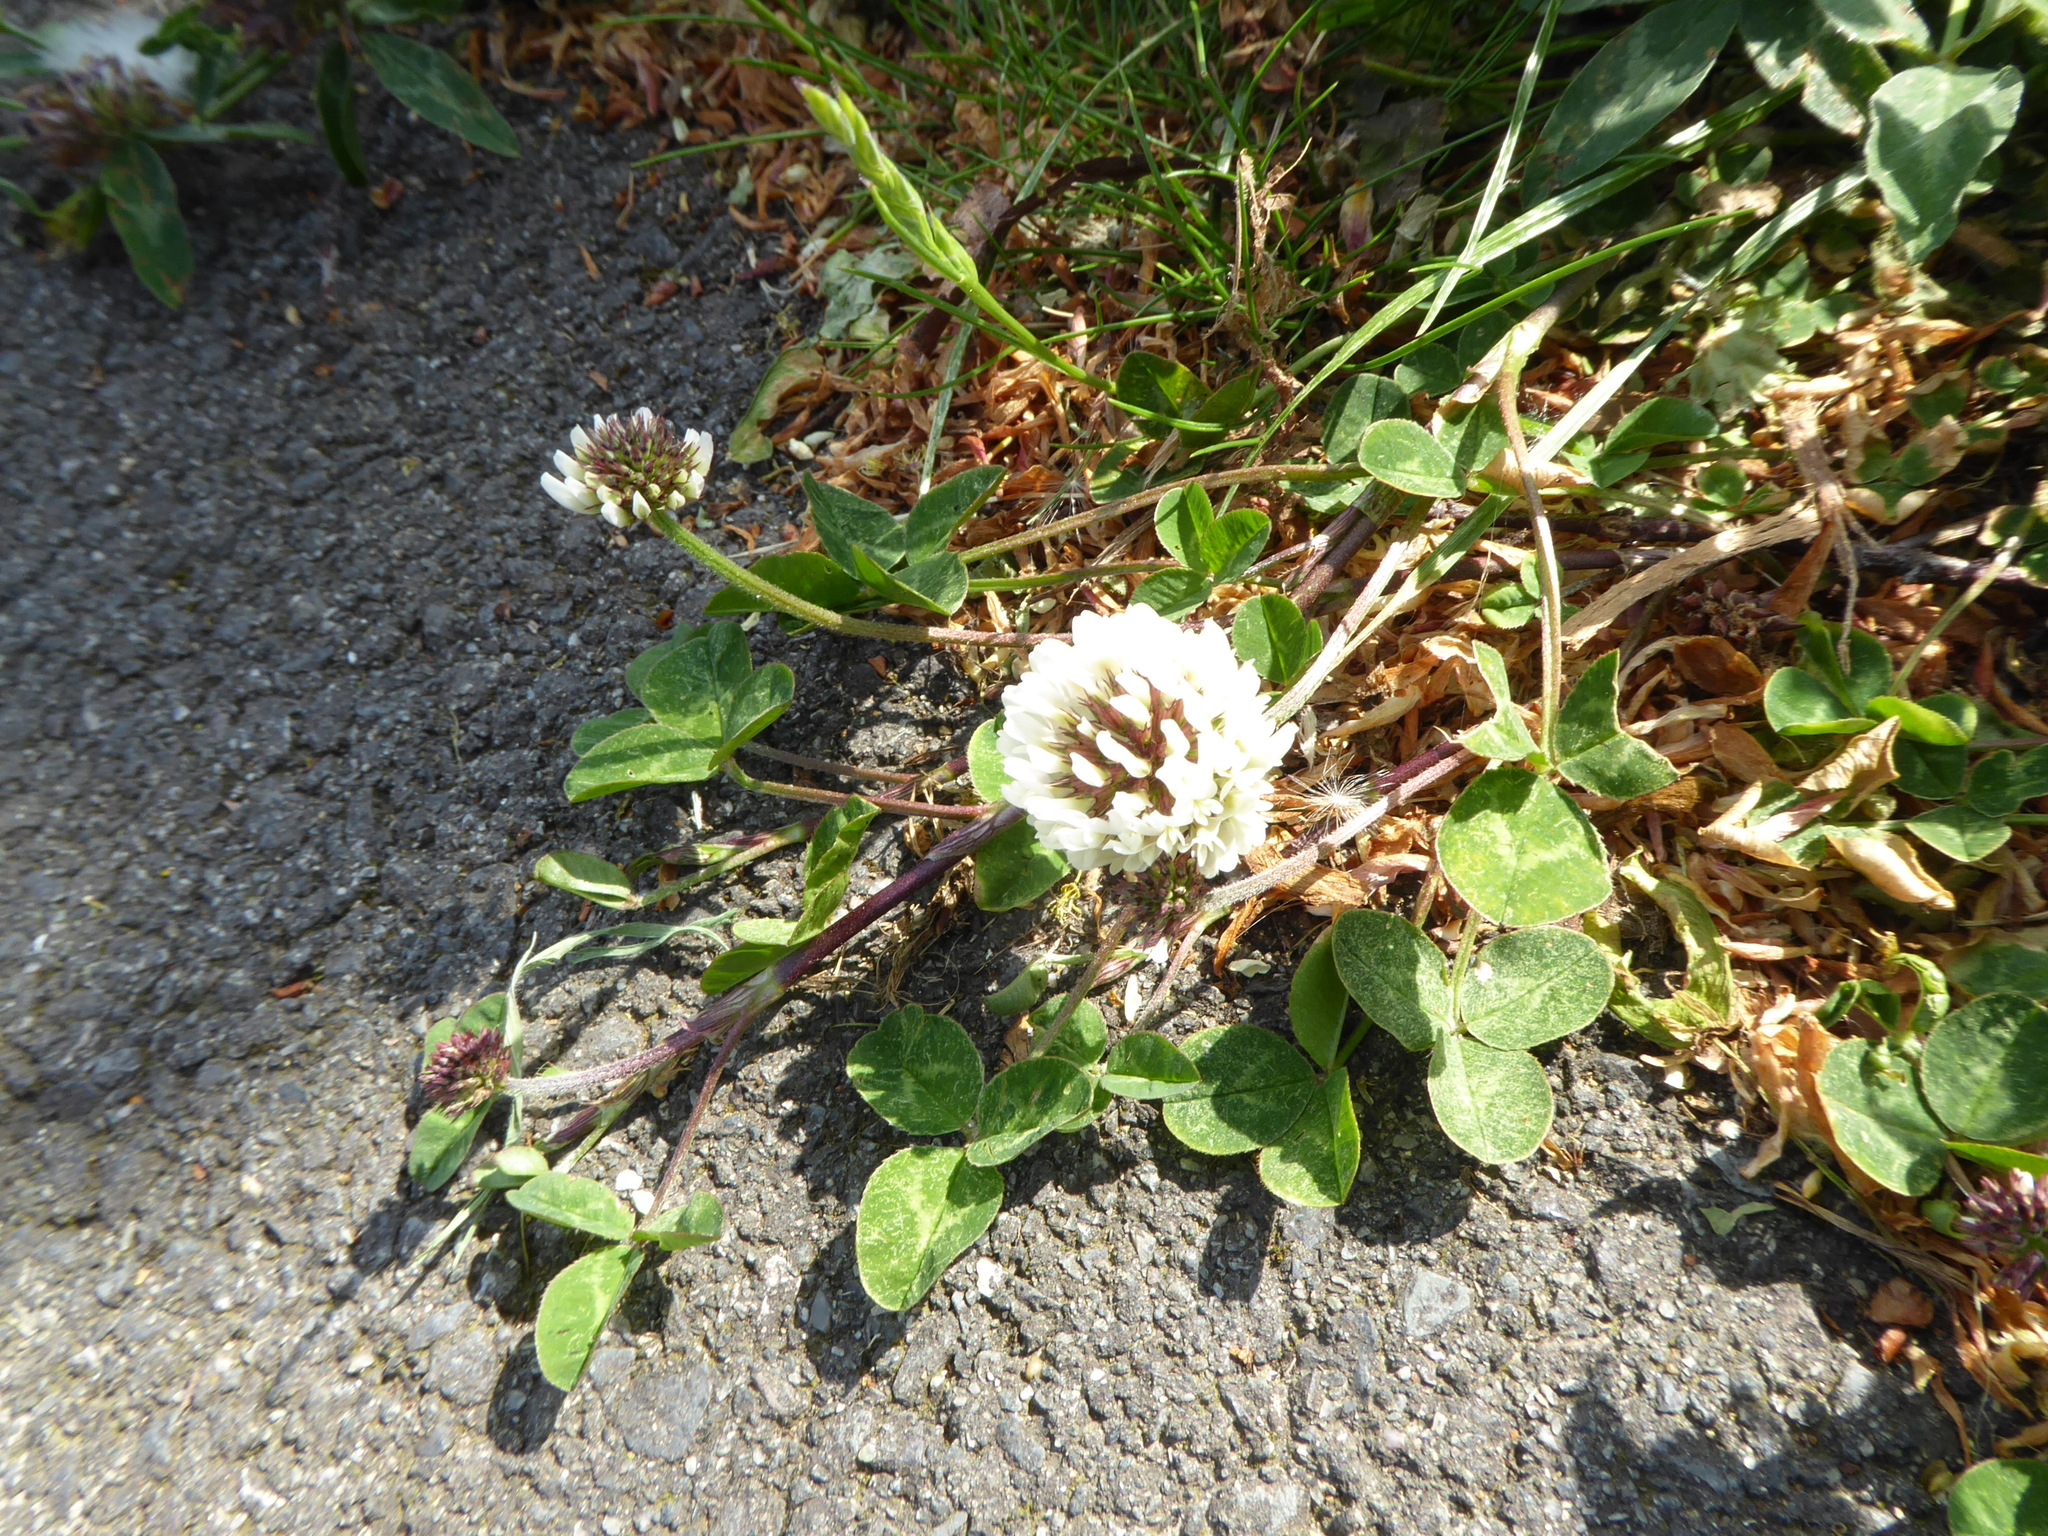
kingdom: Plantae
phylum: Tracheophyta
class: Magnoliopsida
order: Fabales
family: Fabaceae
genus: Trifolium
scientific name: Trifolium repens
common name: White clover
